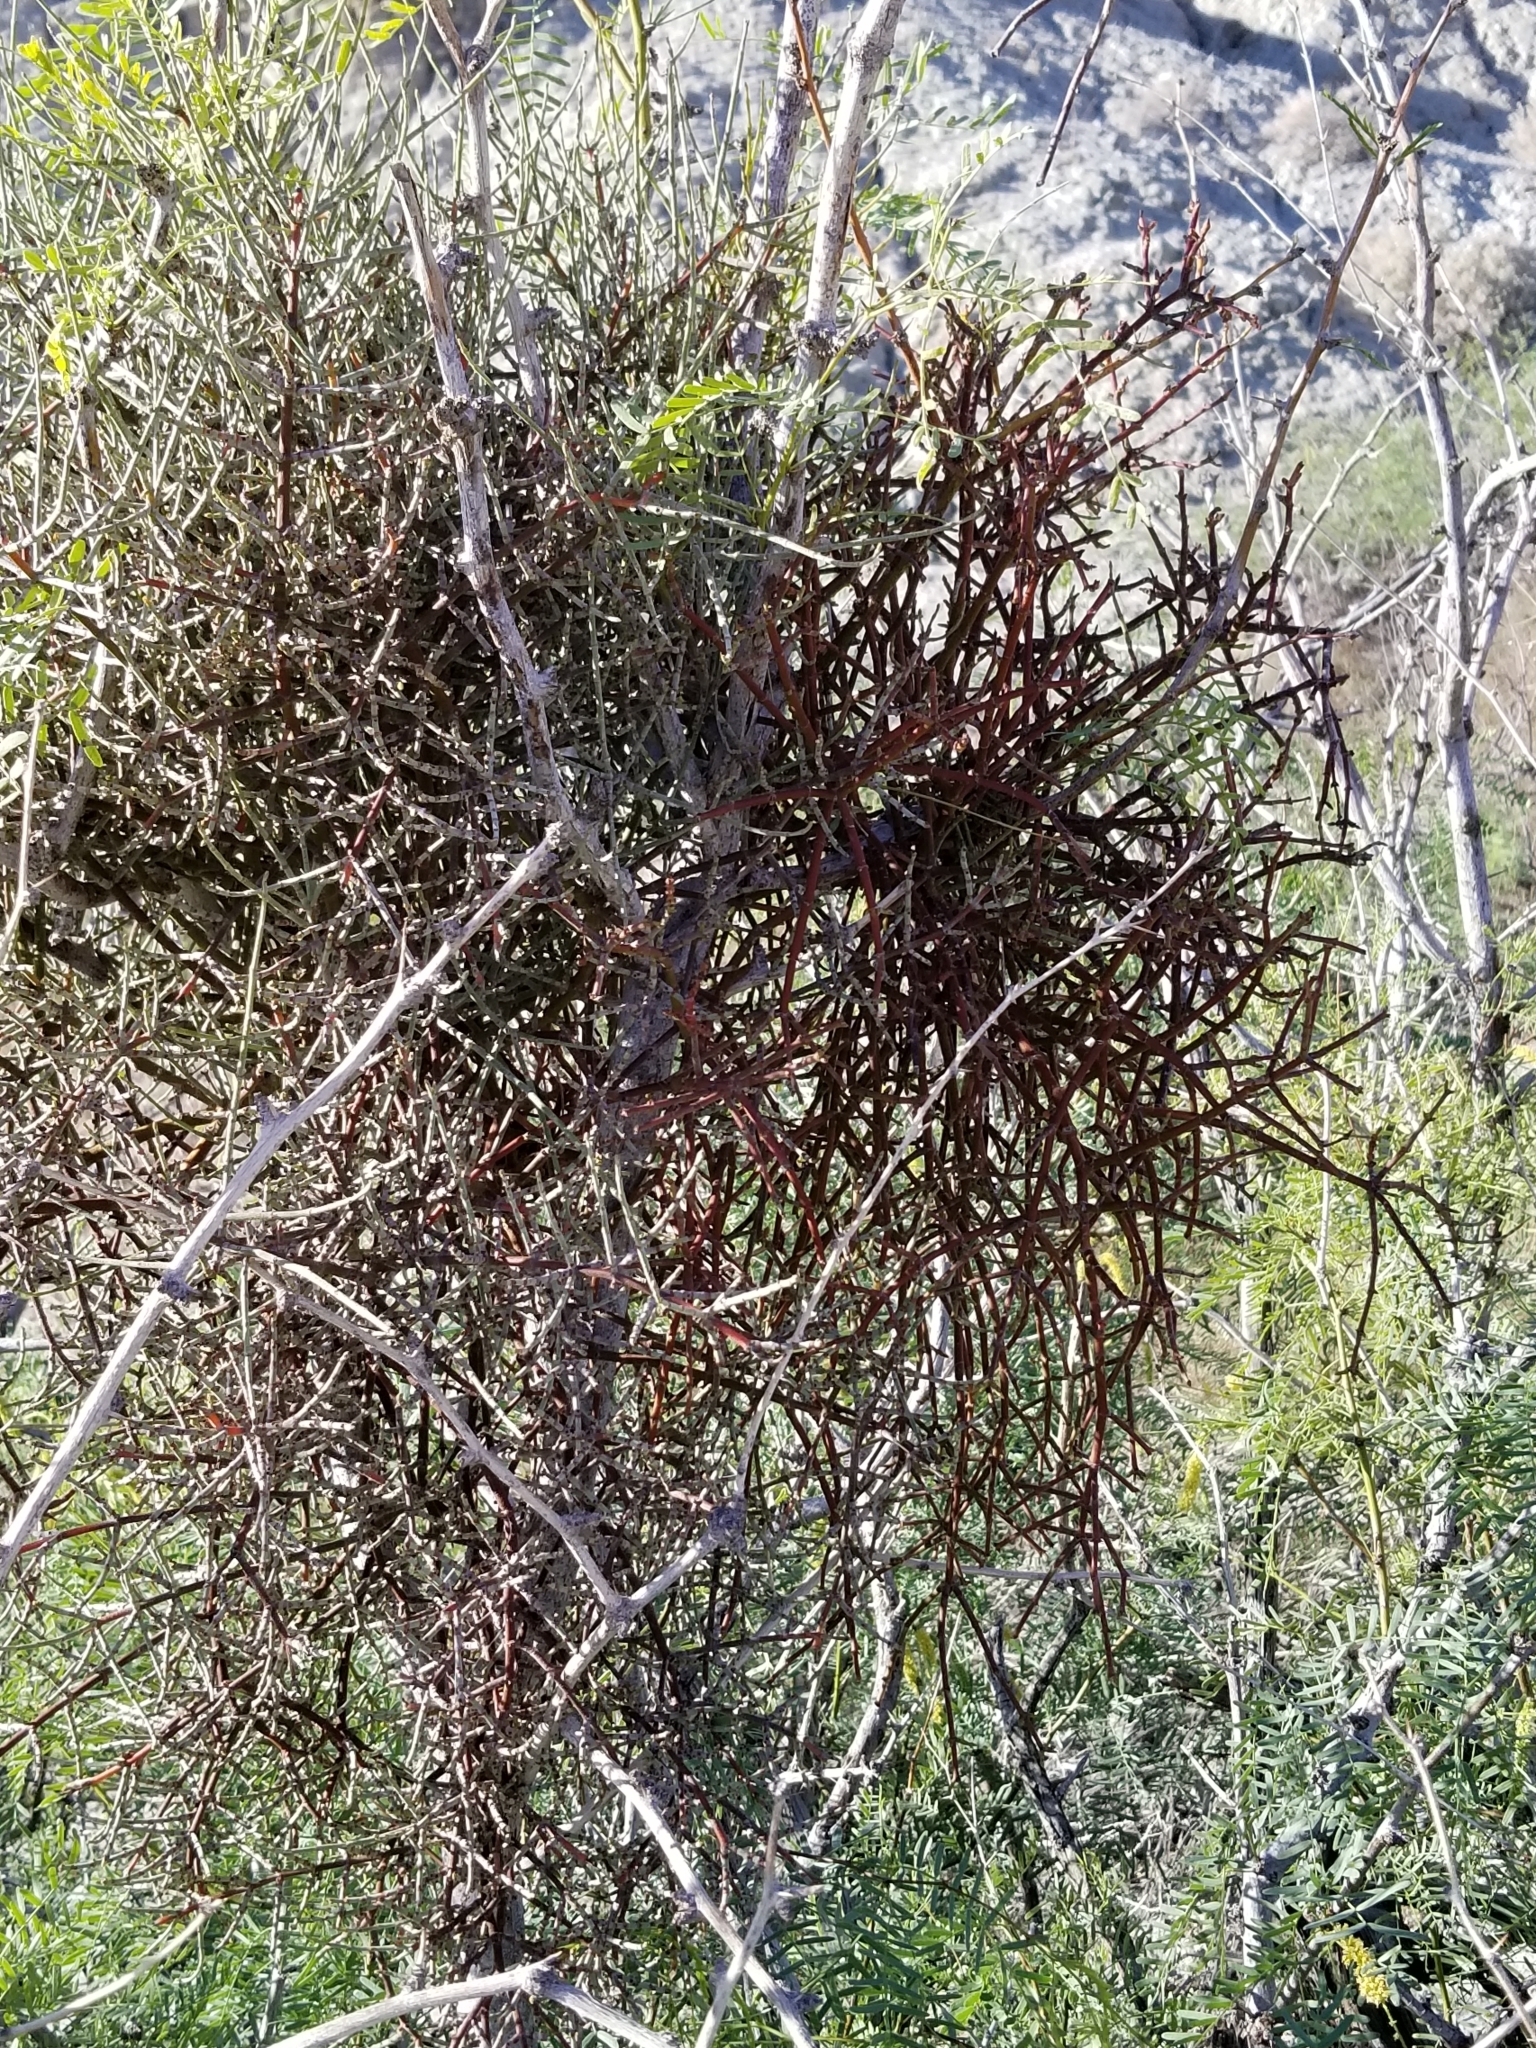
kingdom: Plantae
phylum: Tracheophyta
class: Magnoliopsida
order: Santalales
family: Viscaceae
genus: Phoradendron
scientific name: Phoradendron californicum
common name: Acacia mistletoe
